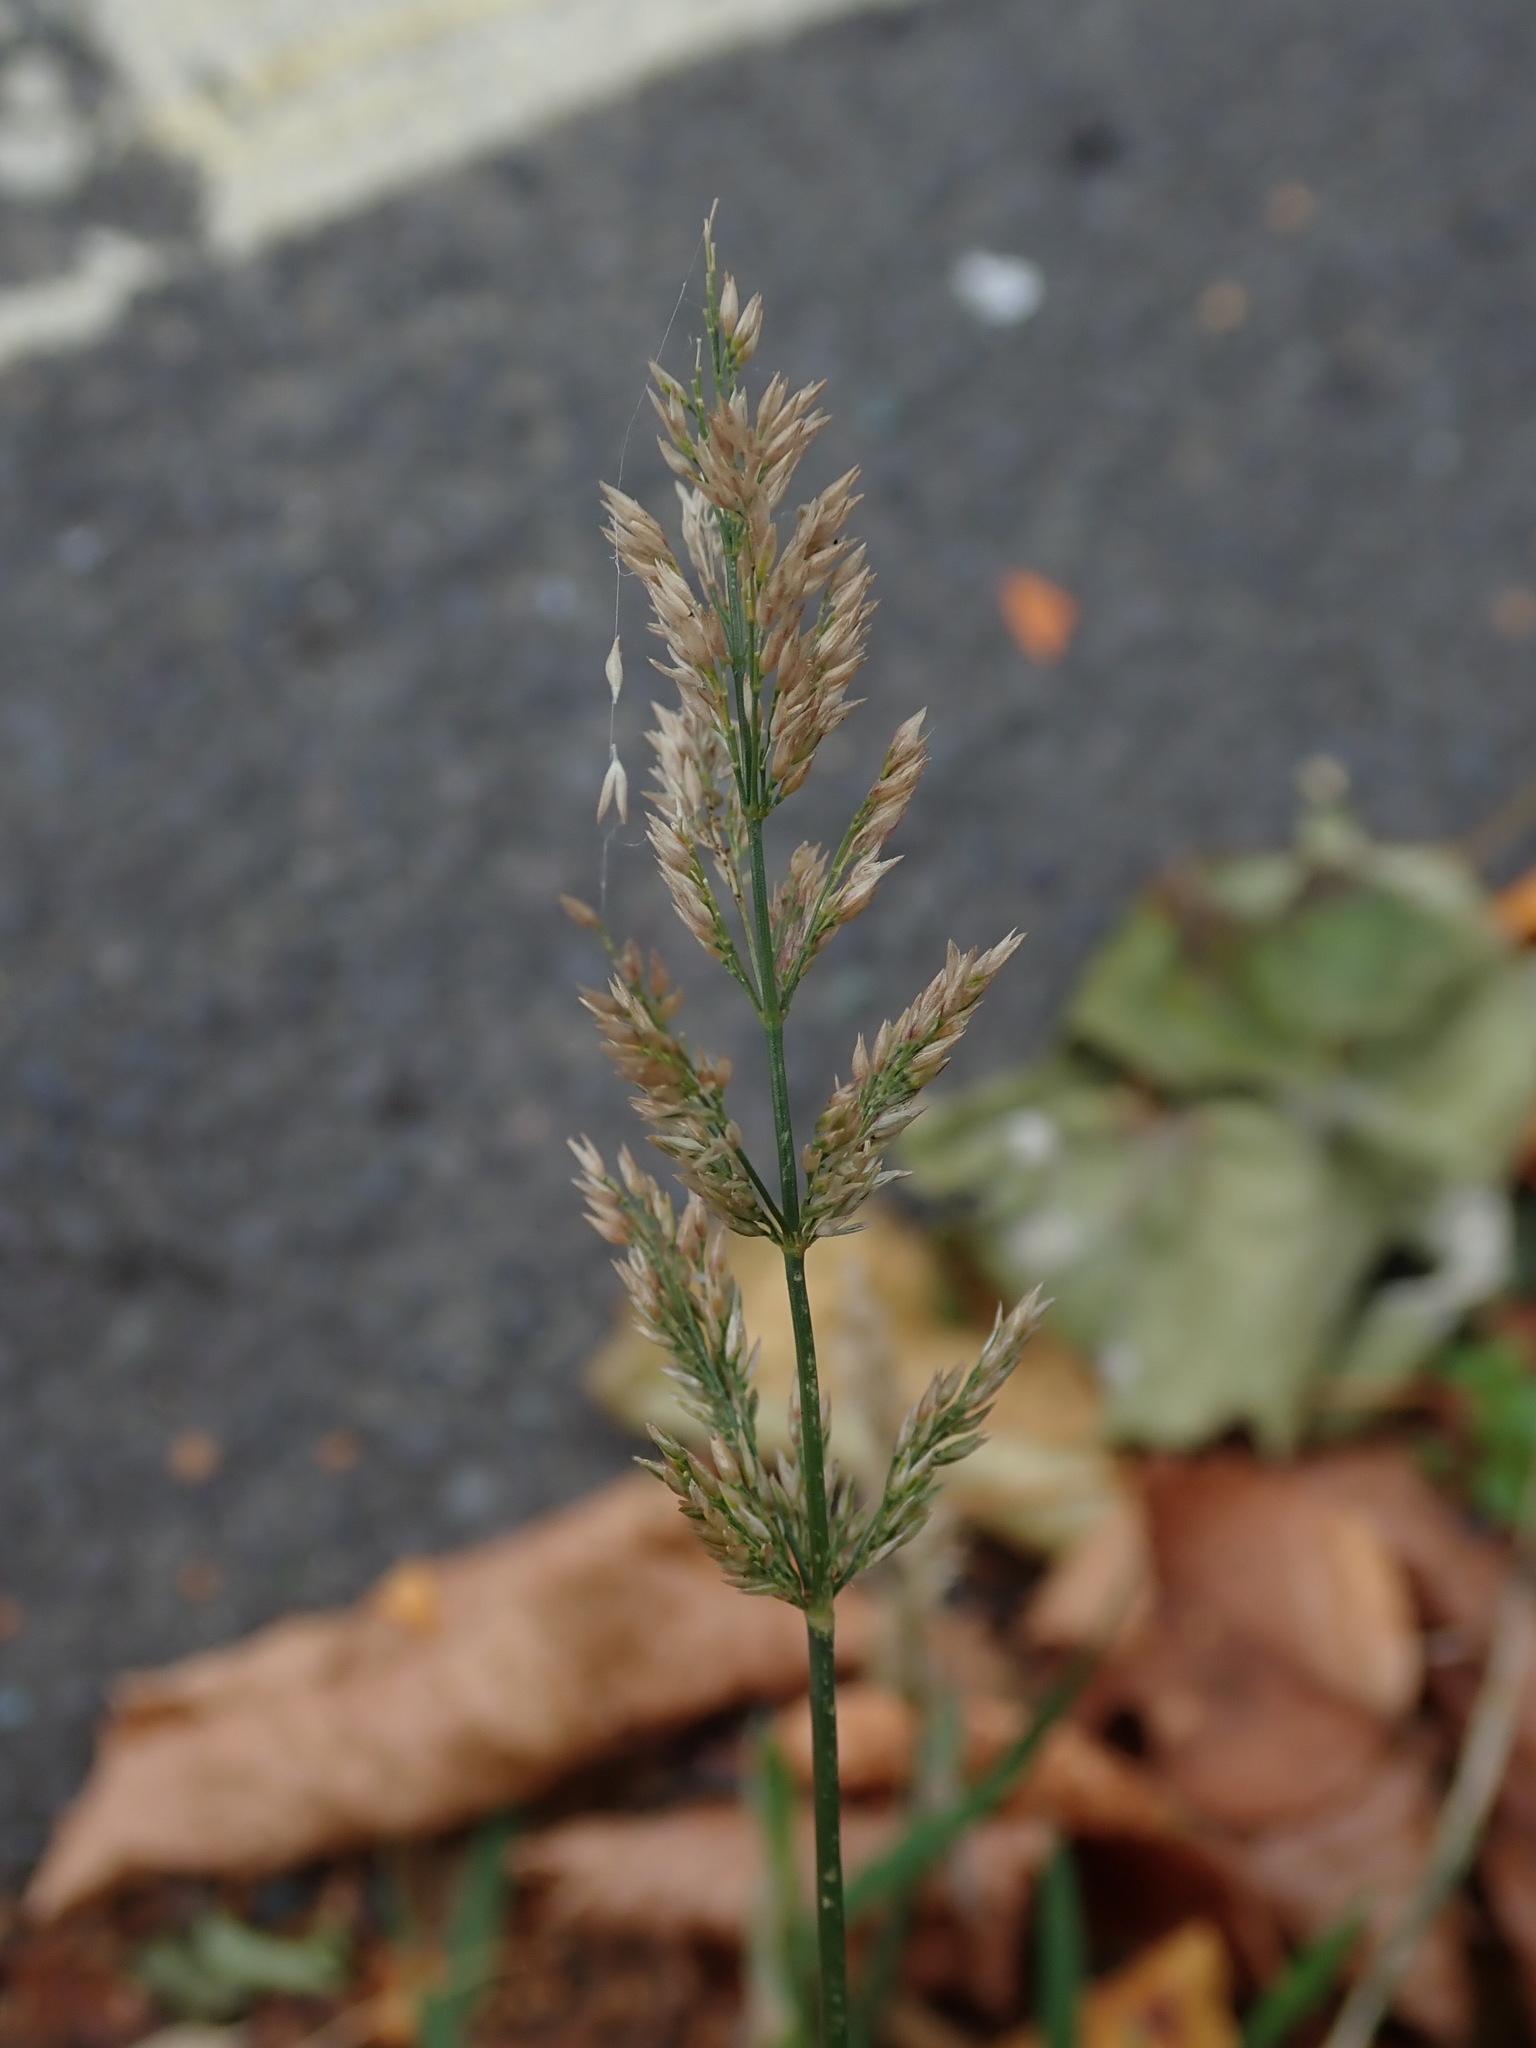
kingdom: Plantae
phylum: Tracheophyta
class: Liliopsida
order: Poales
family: Poaceae
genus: Polypogon
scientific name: Polypogon viridis
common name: Water bent
